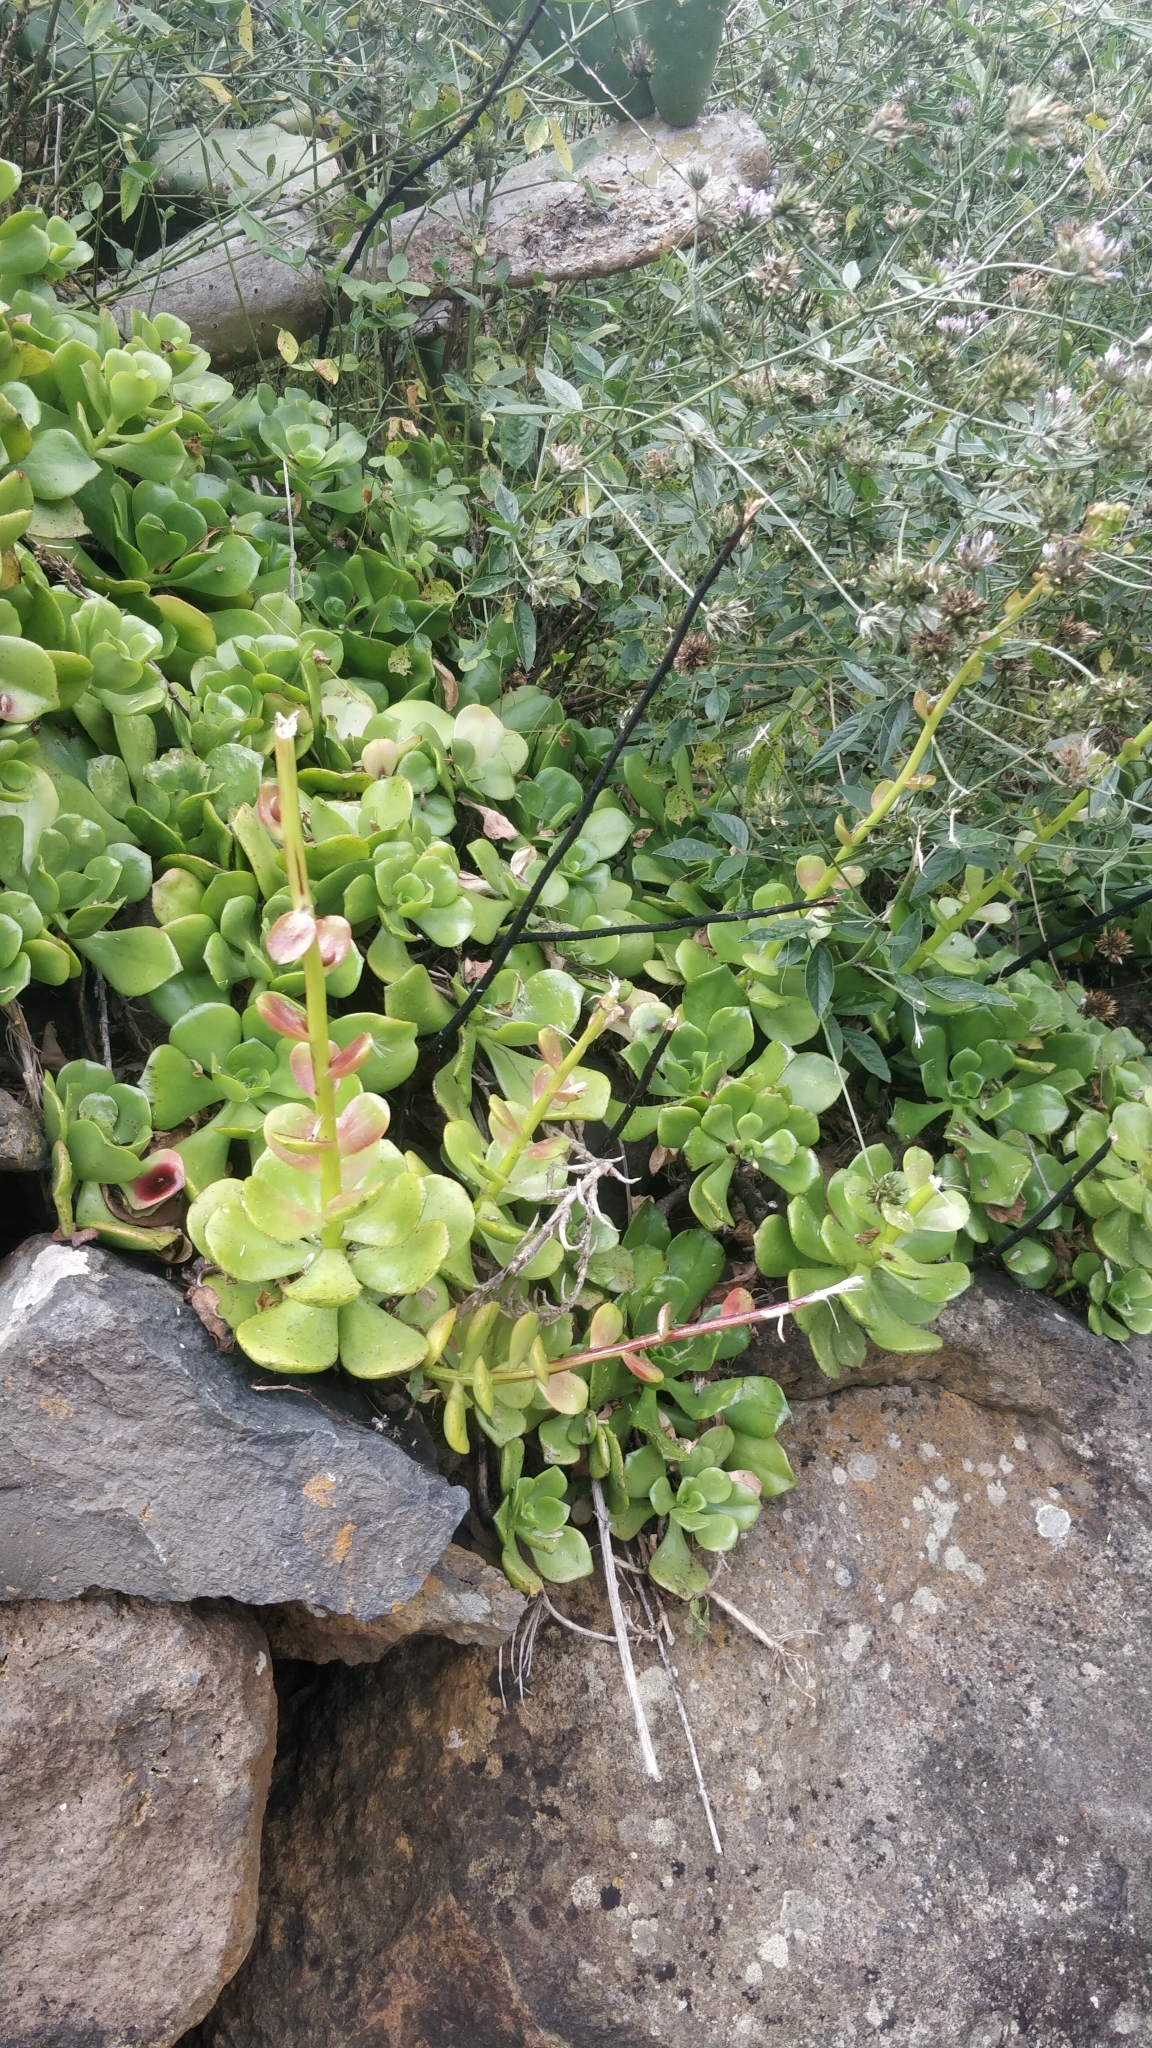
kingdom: Plantae
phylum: Tracheophyta
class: Magnoliopsida
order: Saxifragales
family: Crassulaceae
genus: Aeonium
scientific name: Aeonium glutinosum
